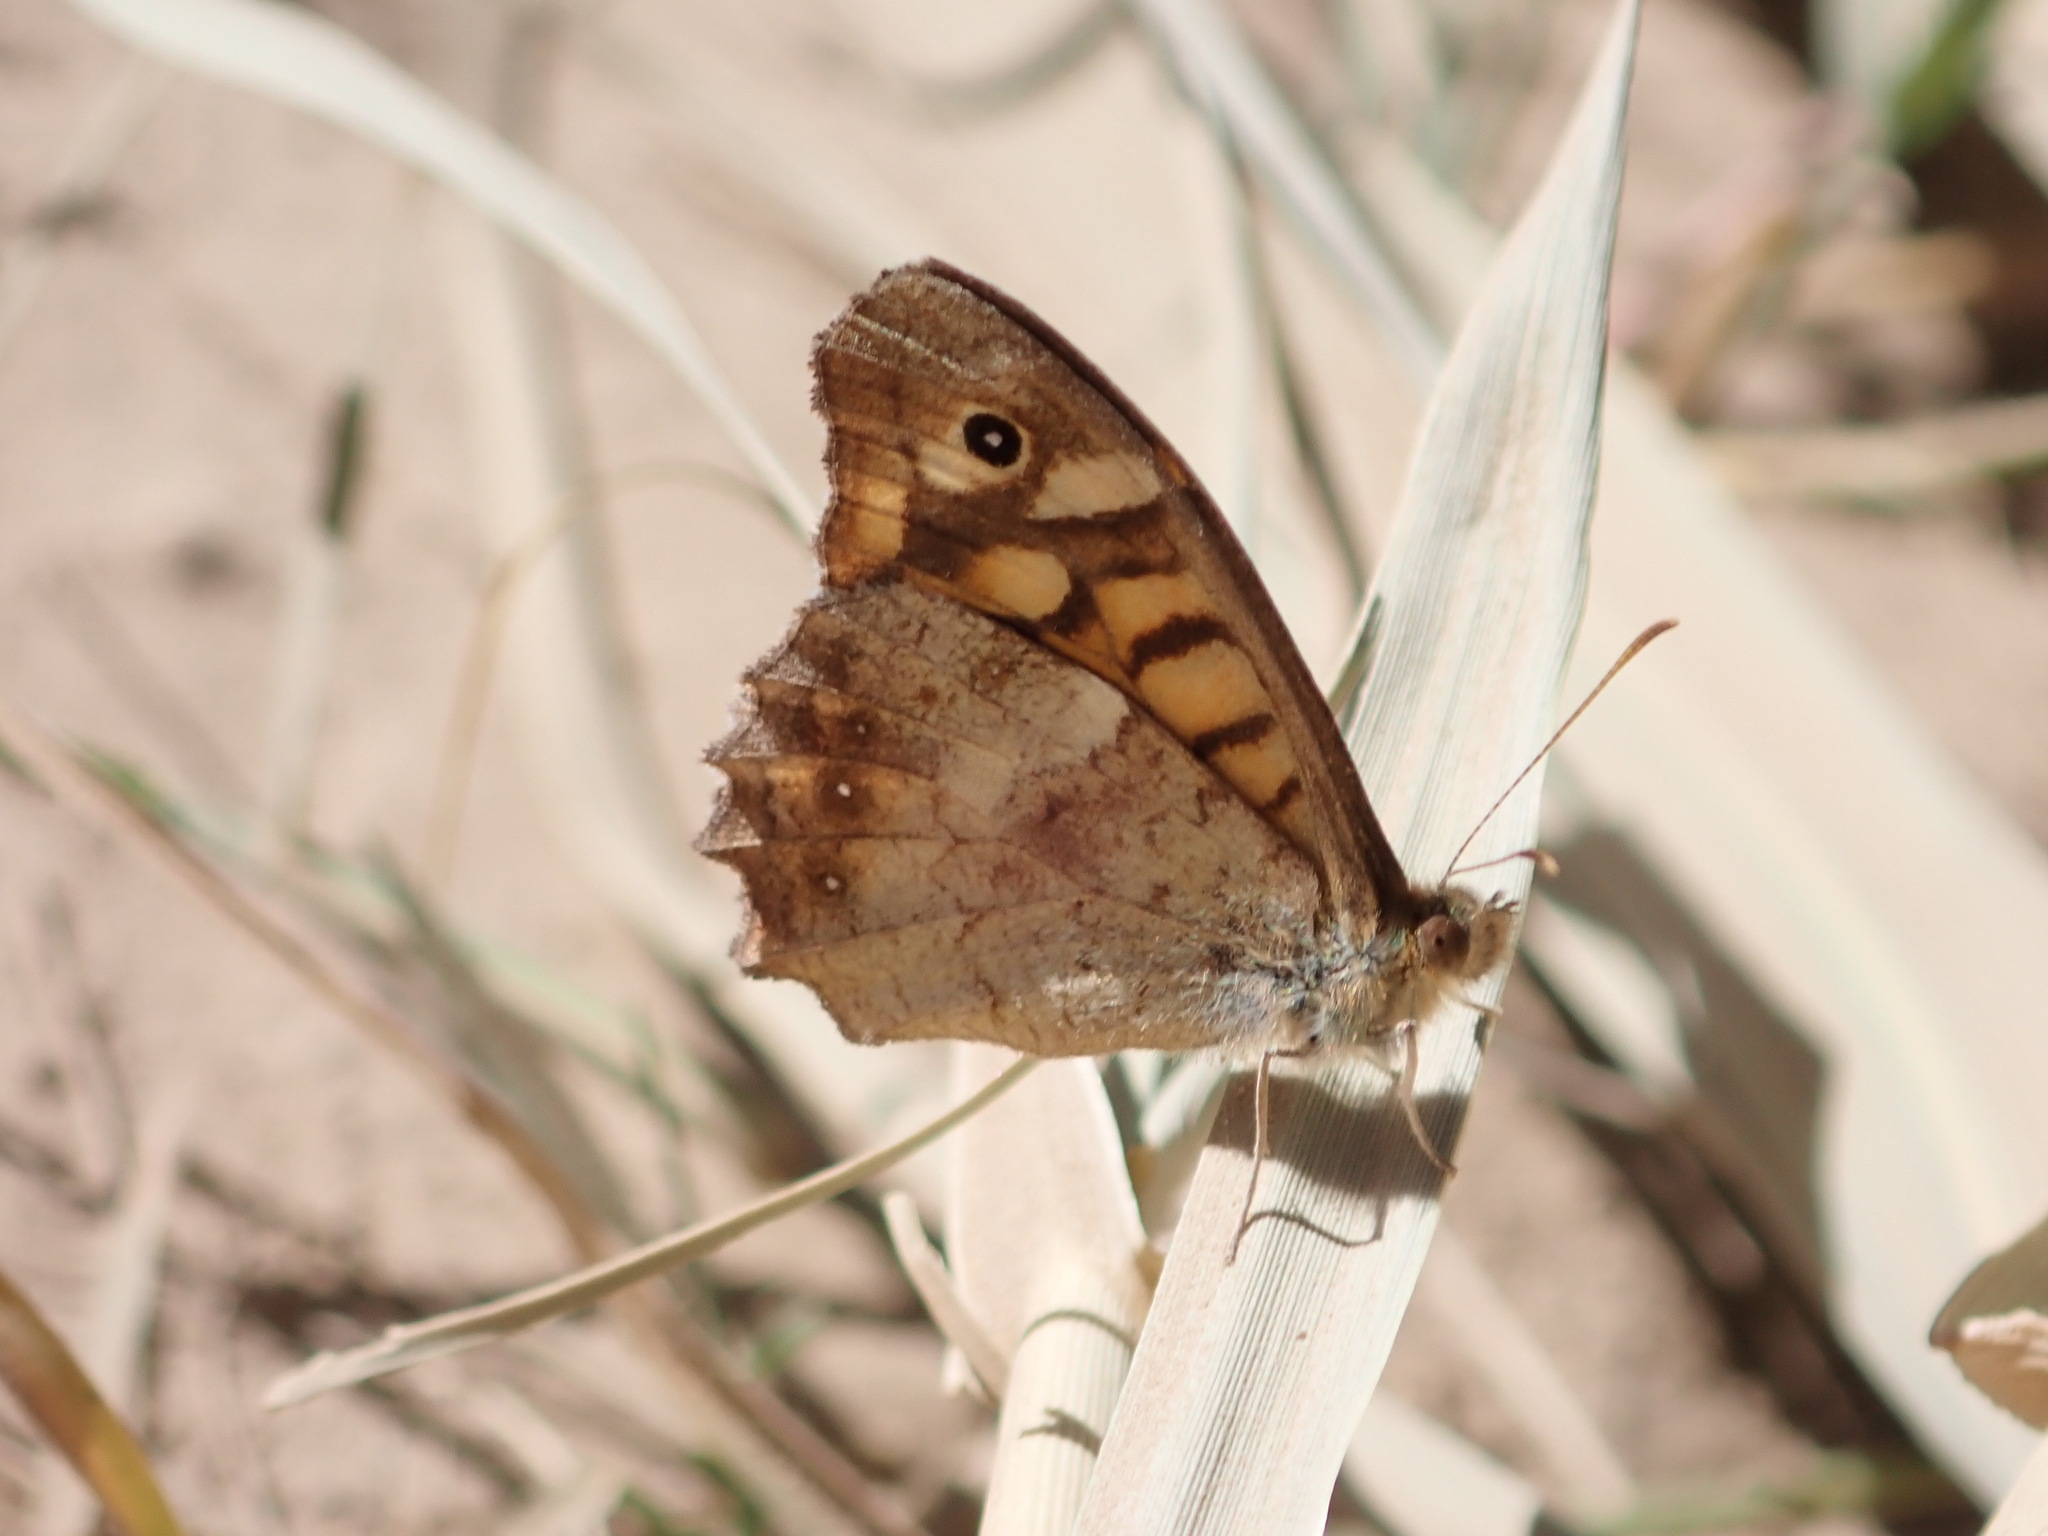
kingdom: Animalia
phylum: Arthropoda
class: Insecta
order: Lepidoptera
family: Nymphalidae
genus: Pararge
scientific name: Pararge aegeria
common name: Speckled wood
